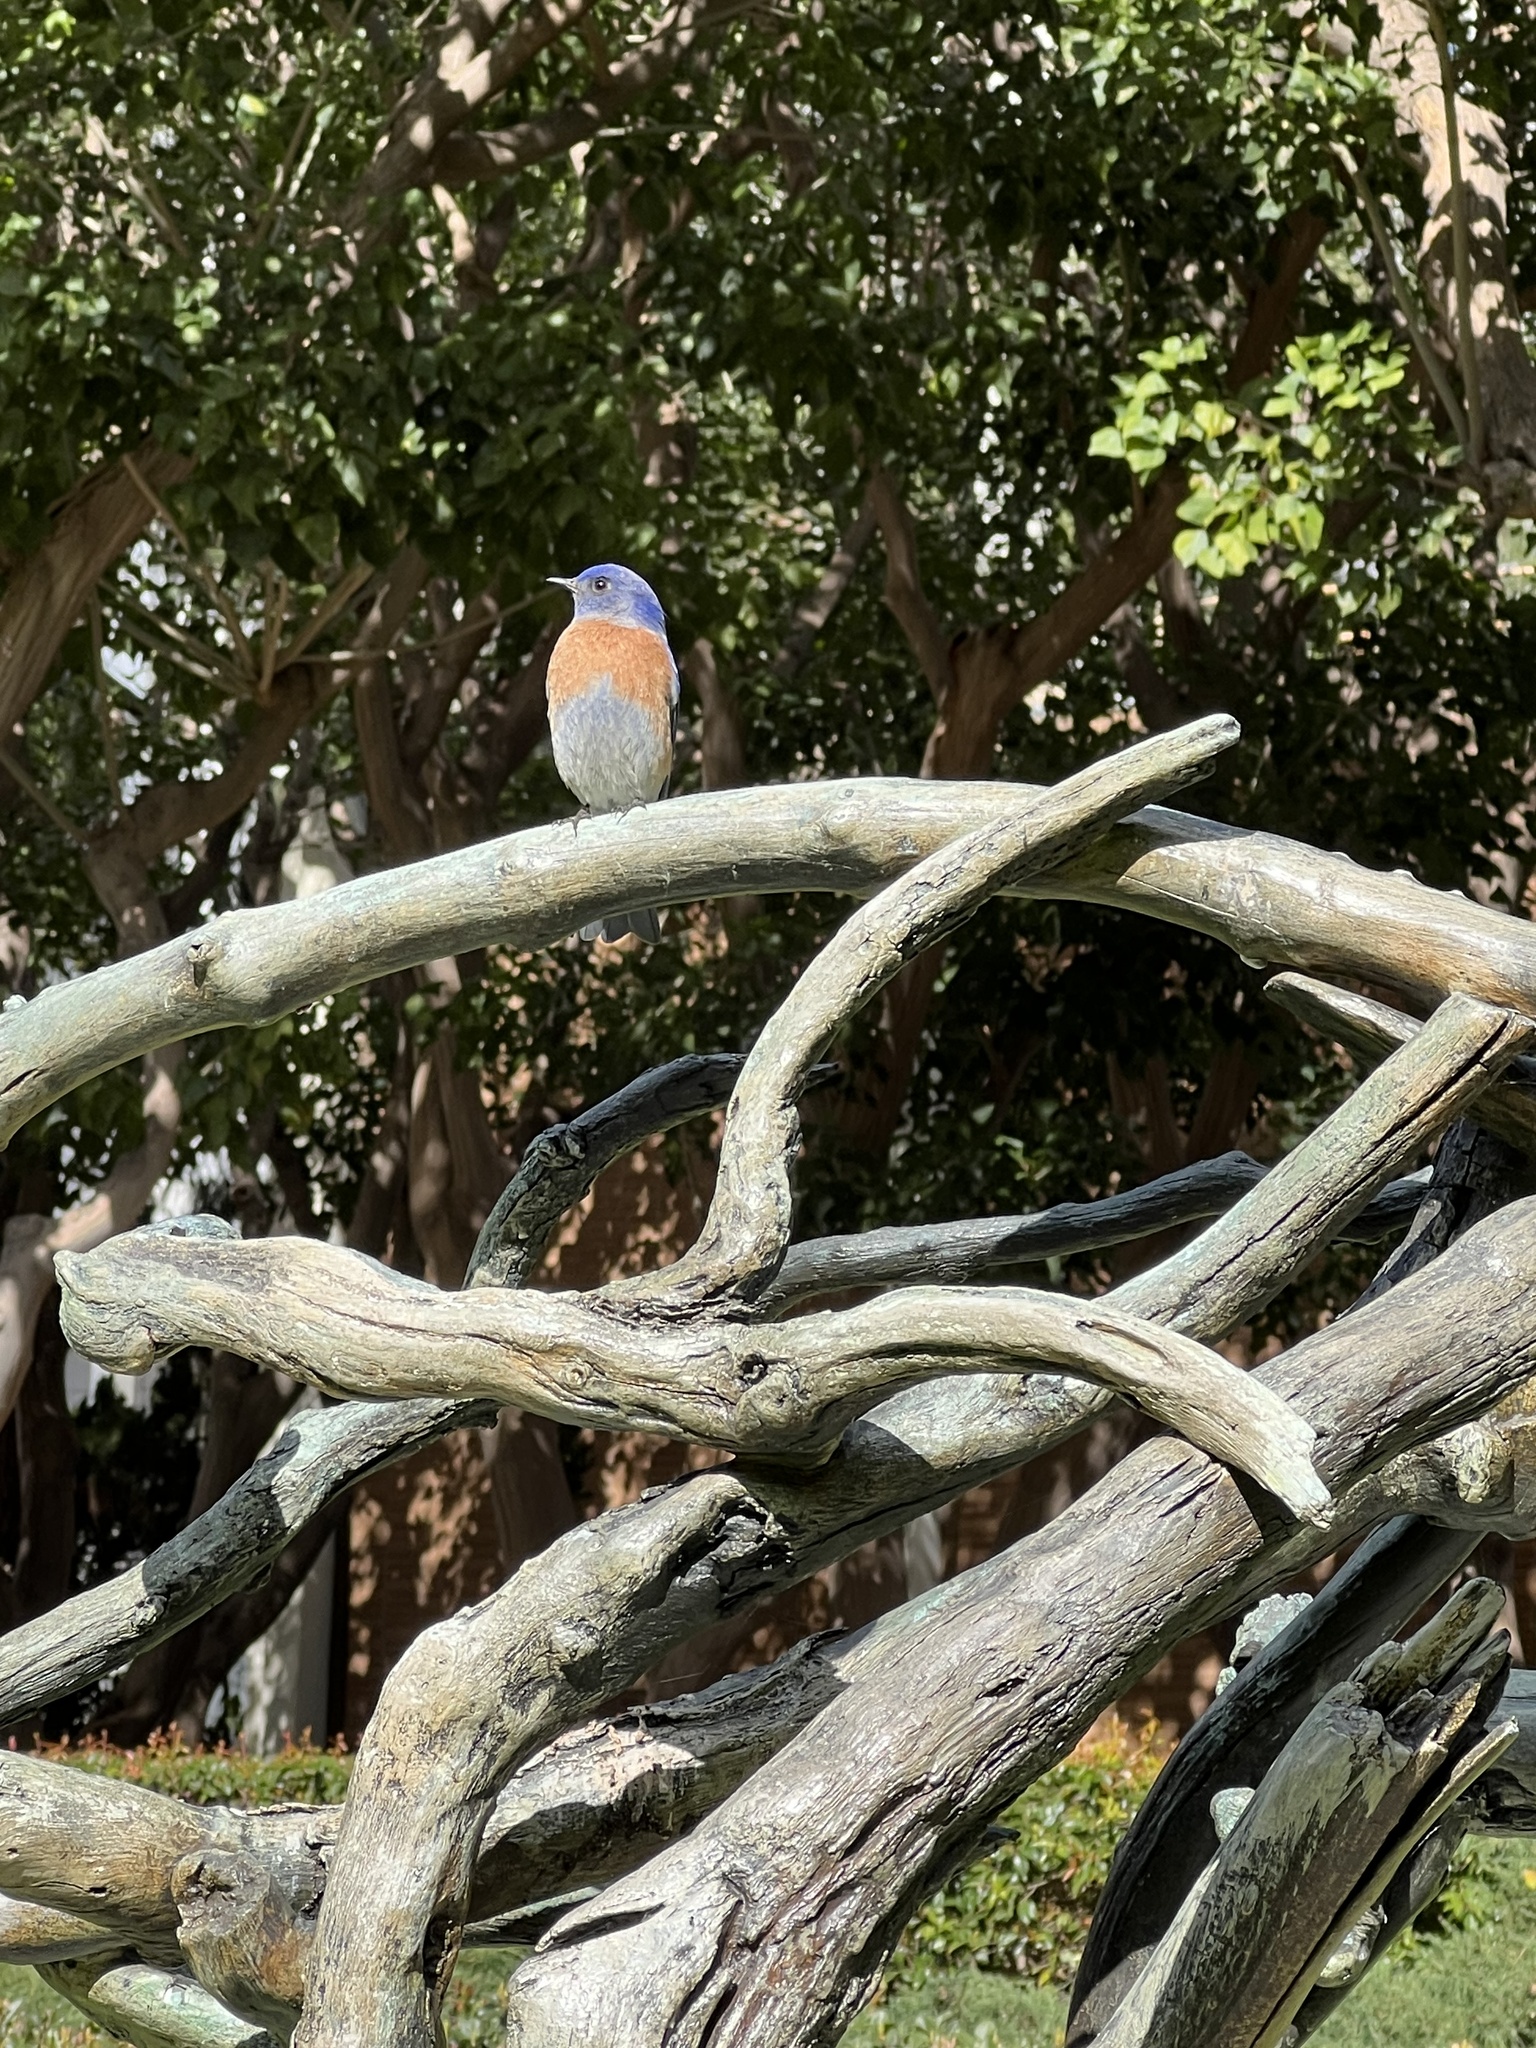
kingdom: Animalia
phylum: Chordata
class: Aves
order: Passeriformes
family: Turdidae
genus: Sialia
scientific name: Sialia mexicana
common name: Western bluebird
